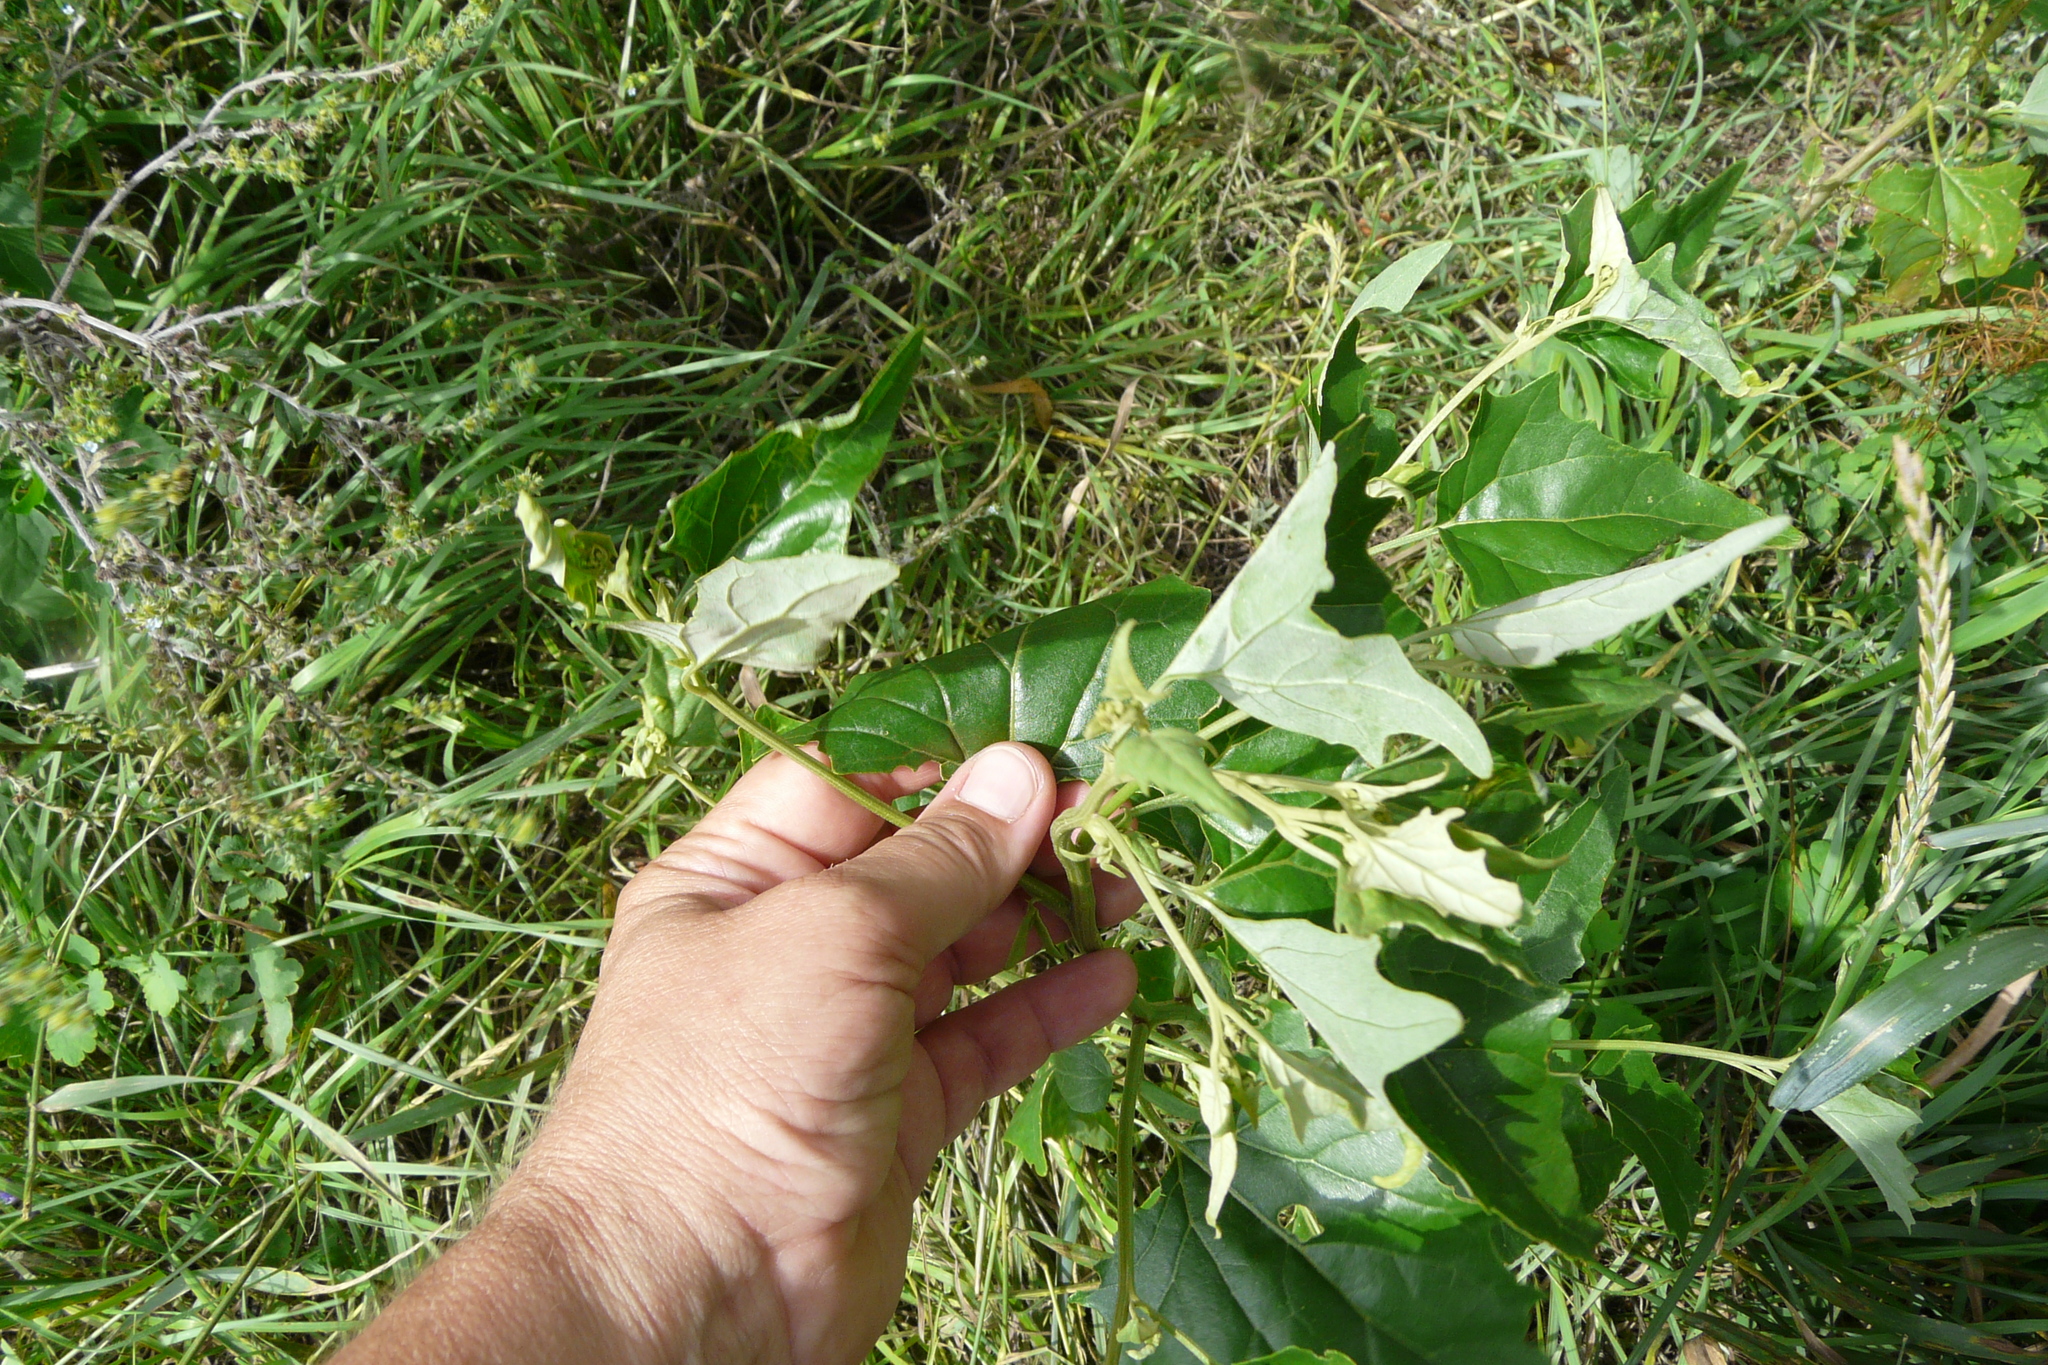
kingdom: Plantae
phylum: Tracheophyta
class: Magnoliopsida
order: Caryophyllales
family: Amaranthaceae
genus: Atriplex
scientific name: Atriplex sagittata
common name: Purple orache
